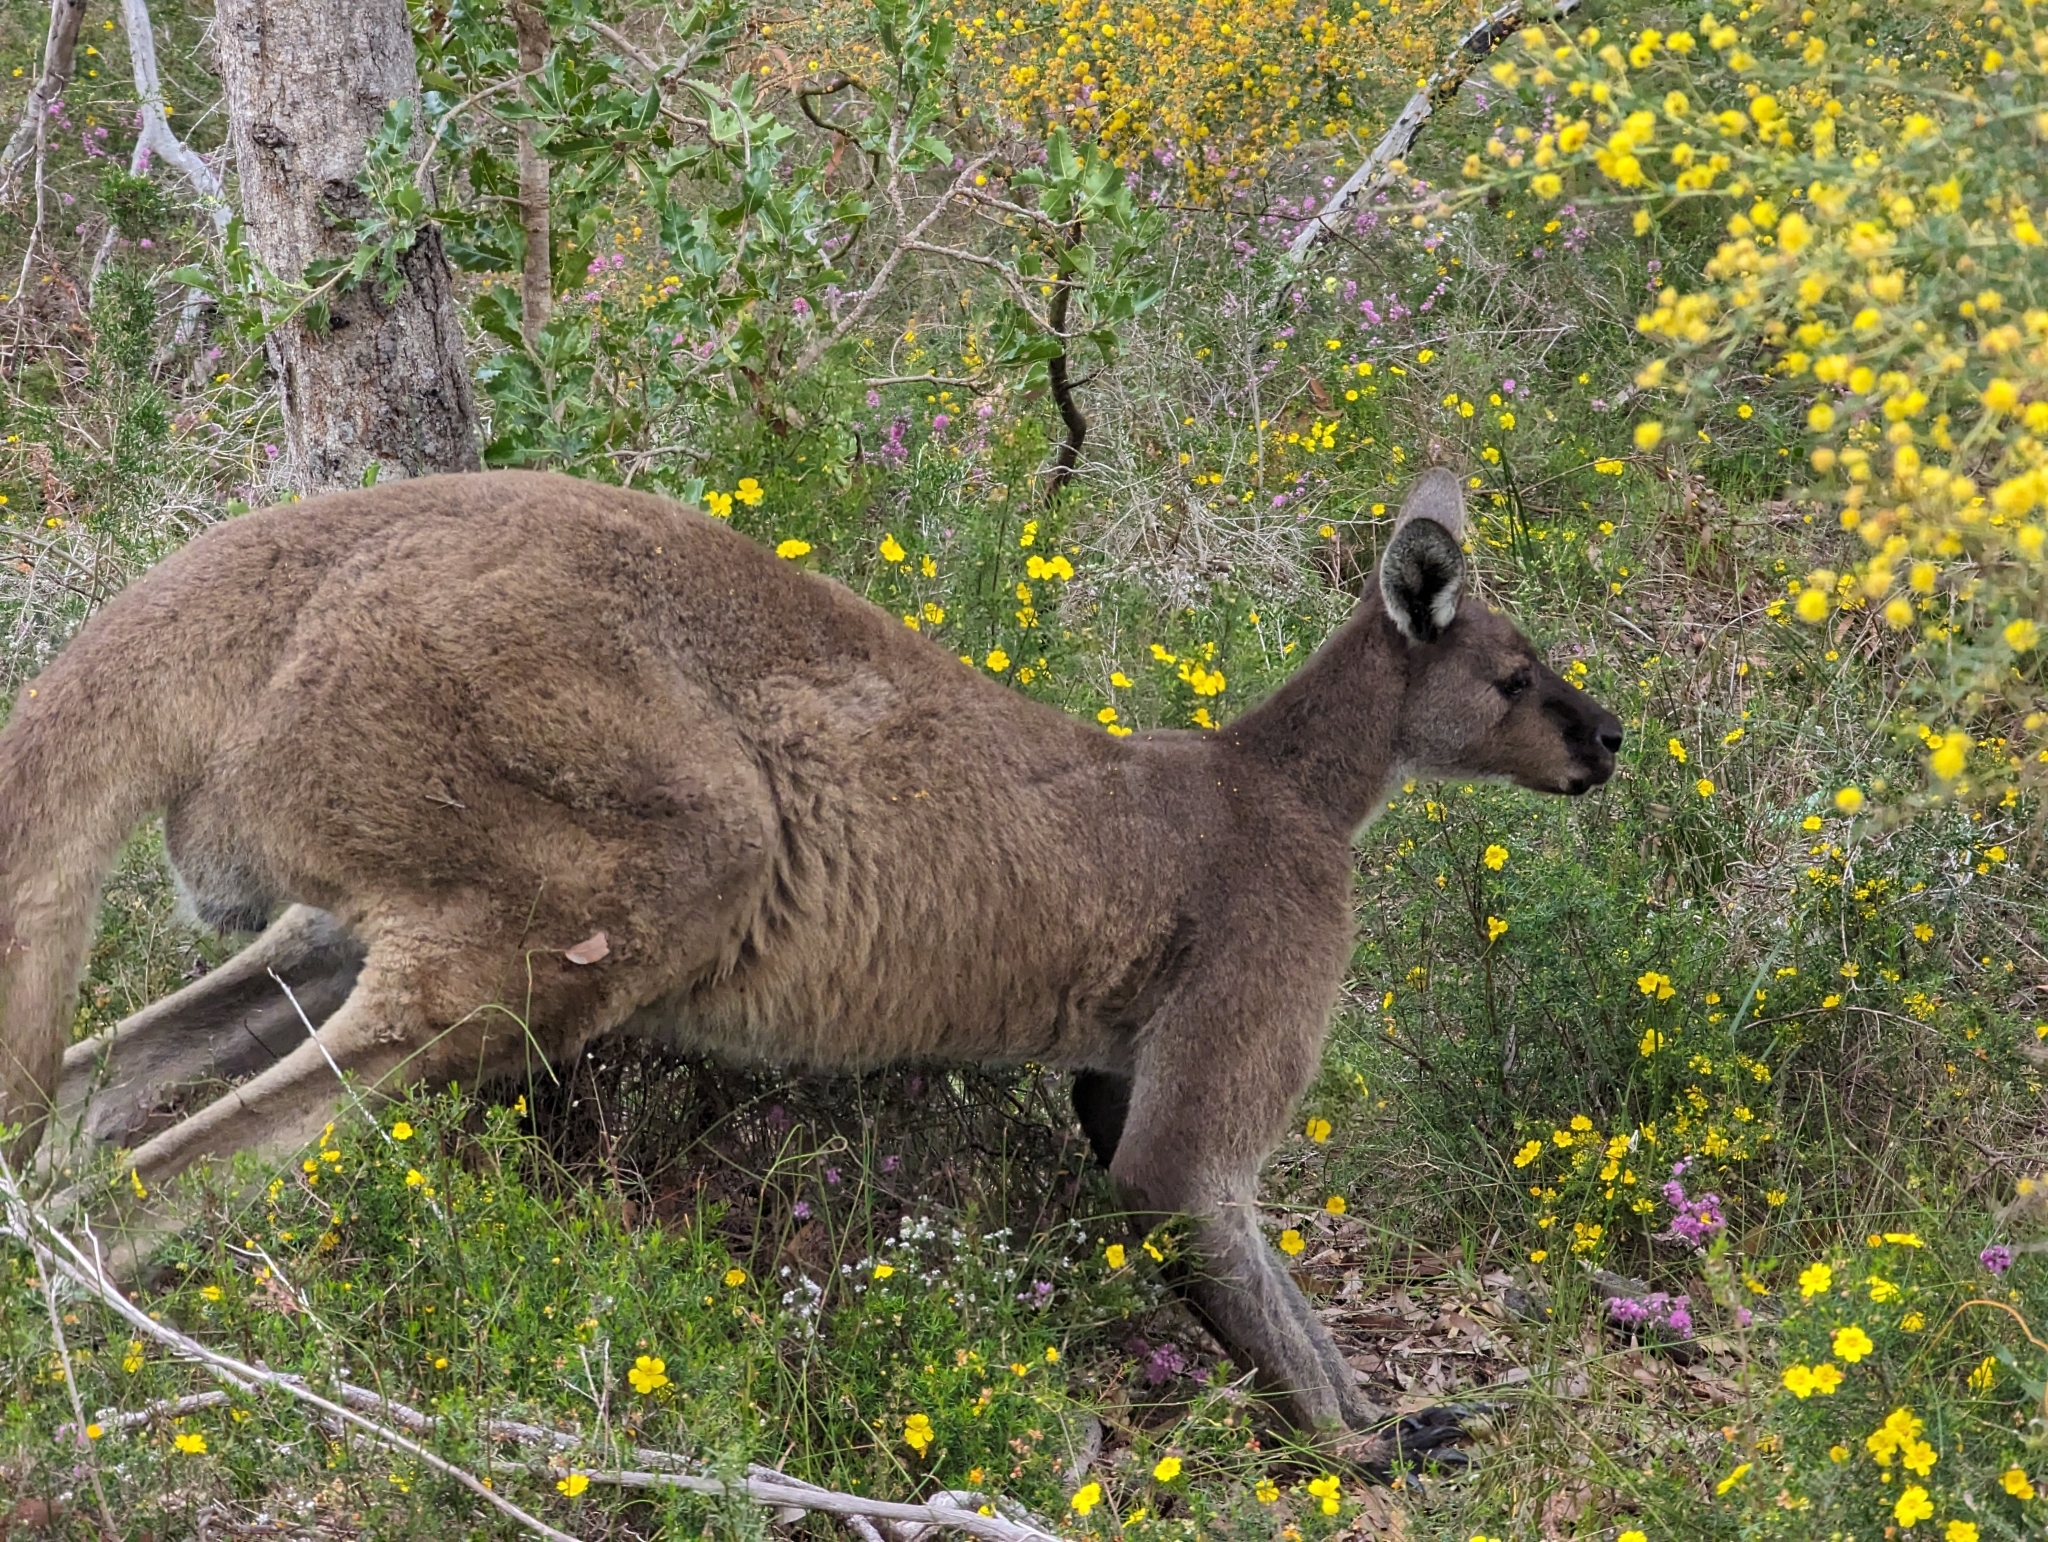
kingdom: Animalia
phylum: Chordata
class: Mammalia
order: Diprotodontia
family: Macropodidae
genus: Macropus
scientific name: Macropus fuliginosus
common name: Western grey kangaroo
